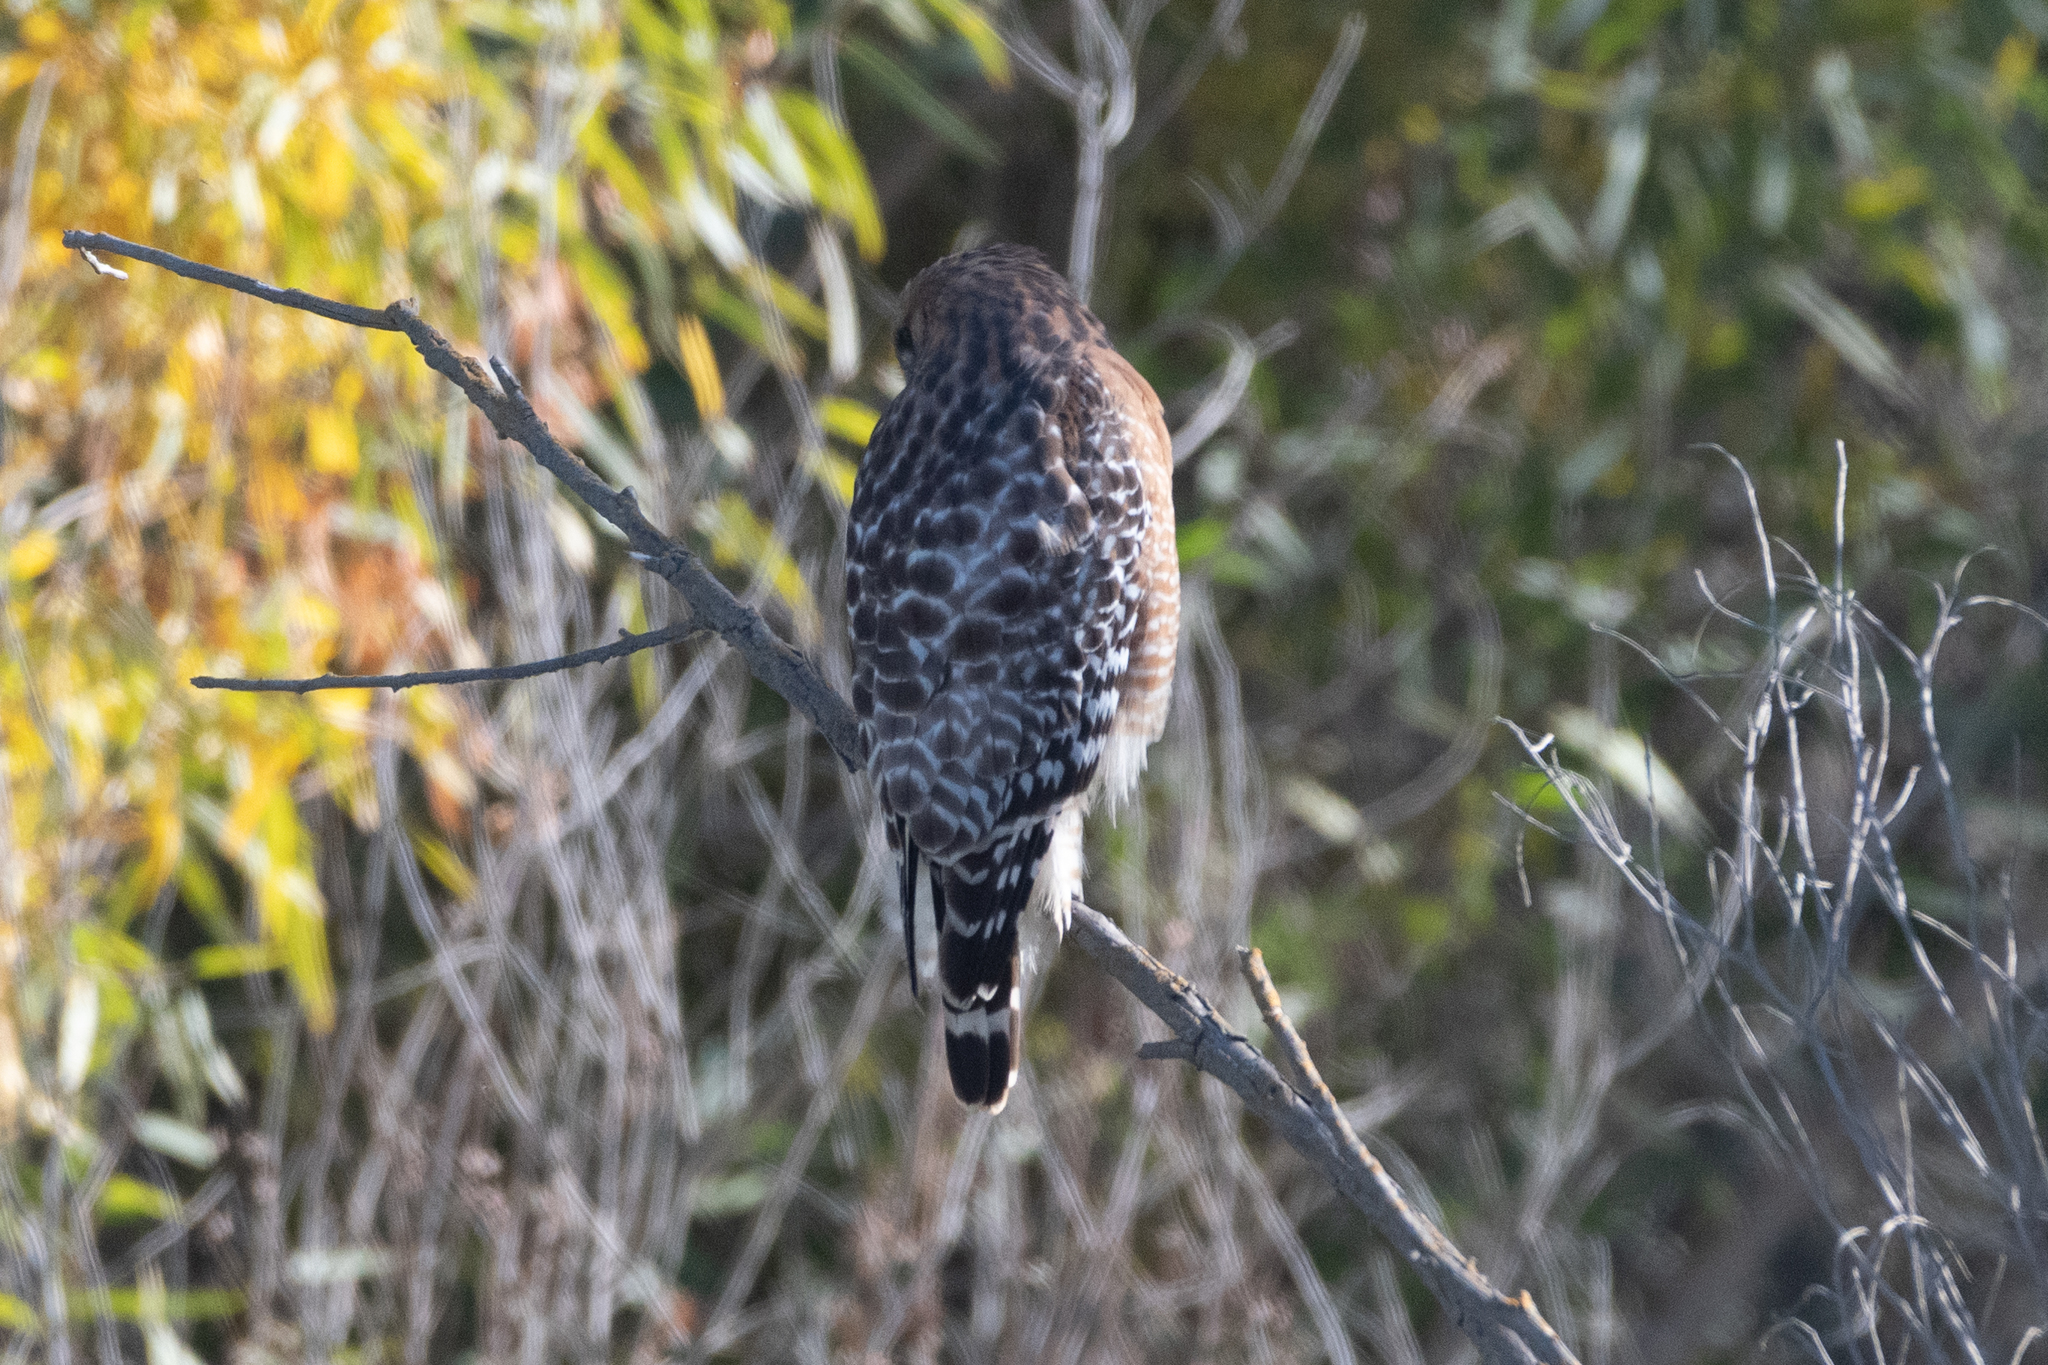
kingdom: Animalia
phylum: Chordata
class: Aves
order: Accipitriformes
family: Accipitridae
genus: Buteo
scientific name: Buteo lineatus
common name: Red-shouldered hawk
